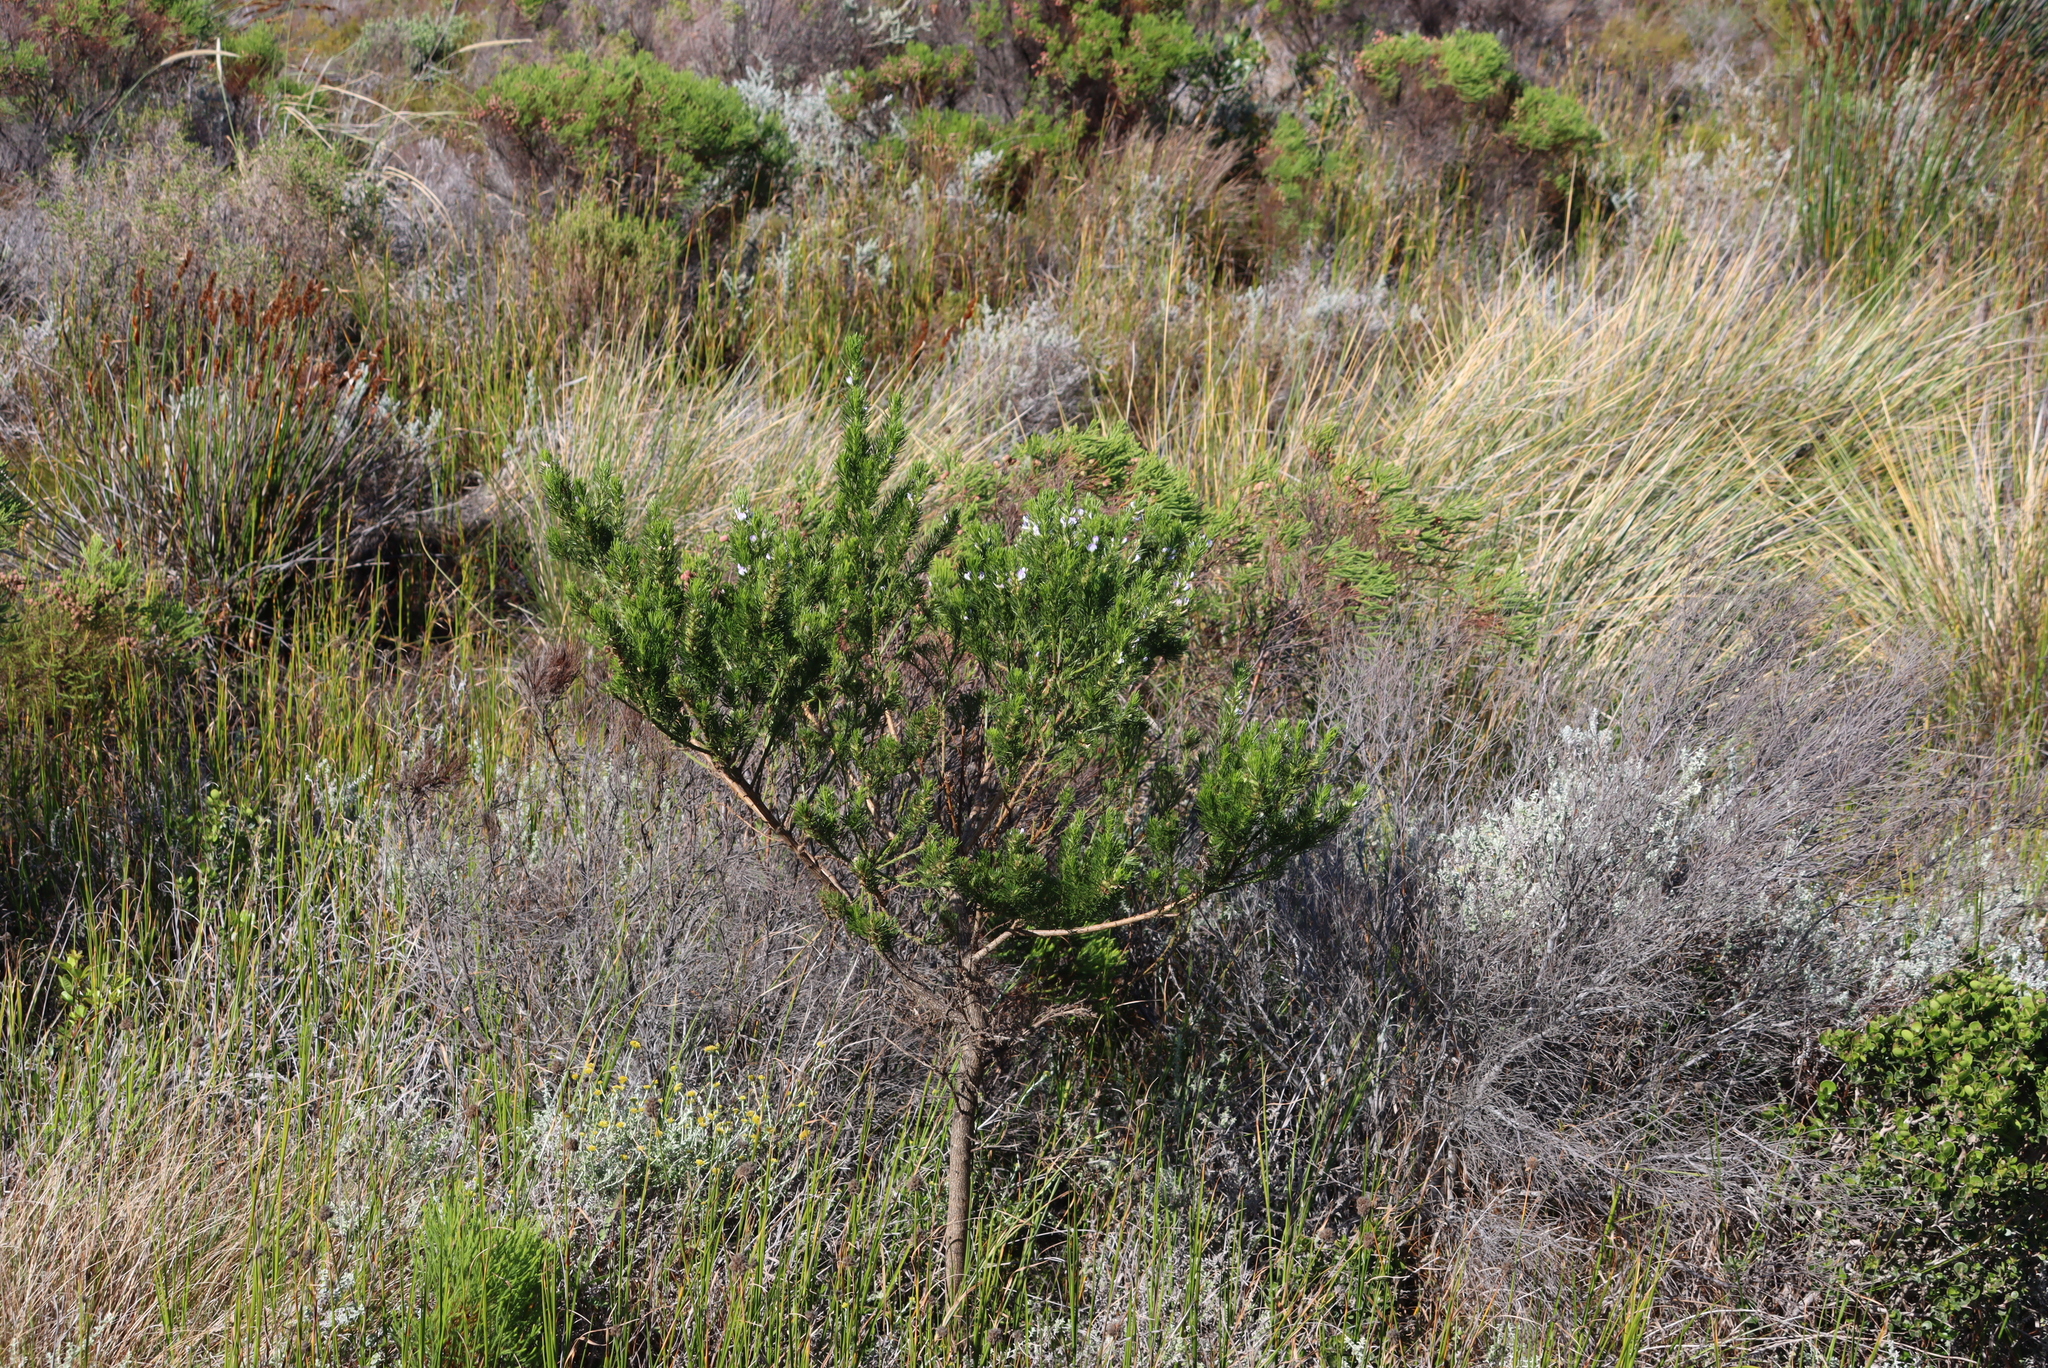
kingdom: Plantae
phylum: Tracheophyta
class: Magnoliopsida
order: Fabales
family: Fabaceae
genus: Psoralea
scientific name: Psoralea pinnata
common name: African scurfpea
